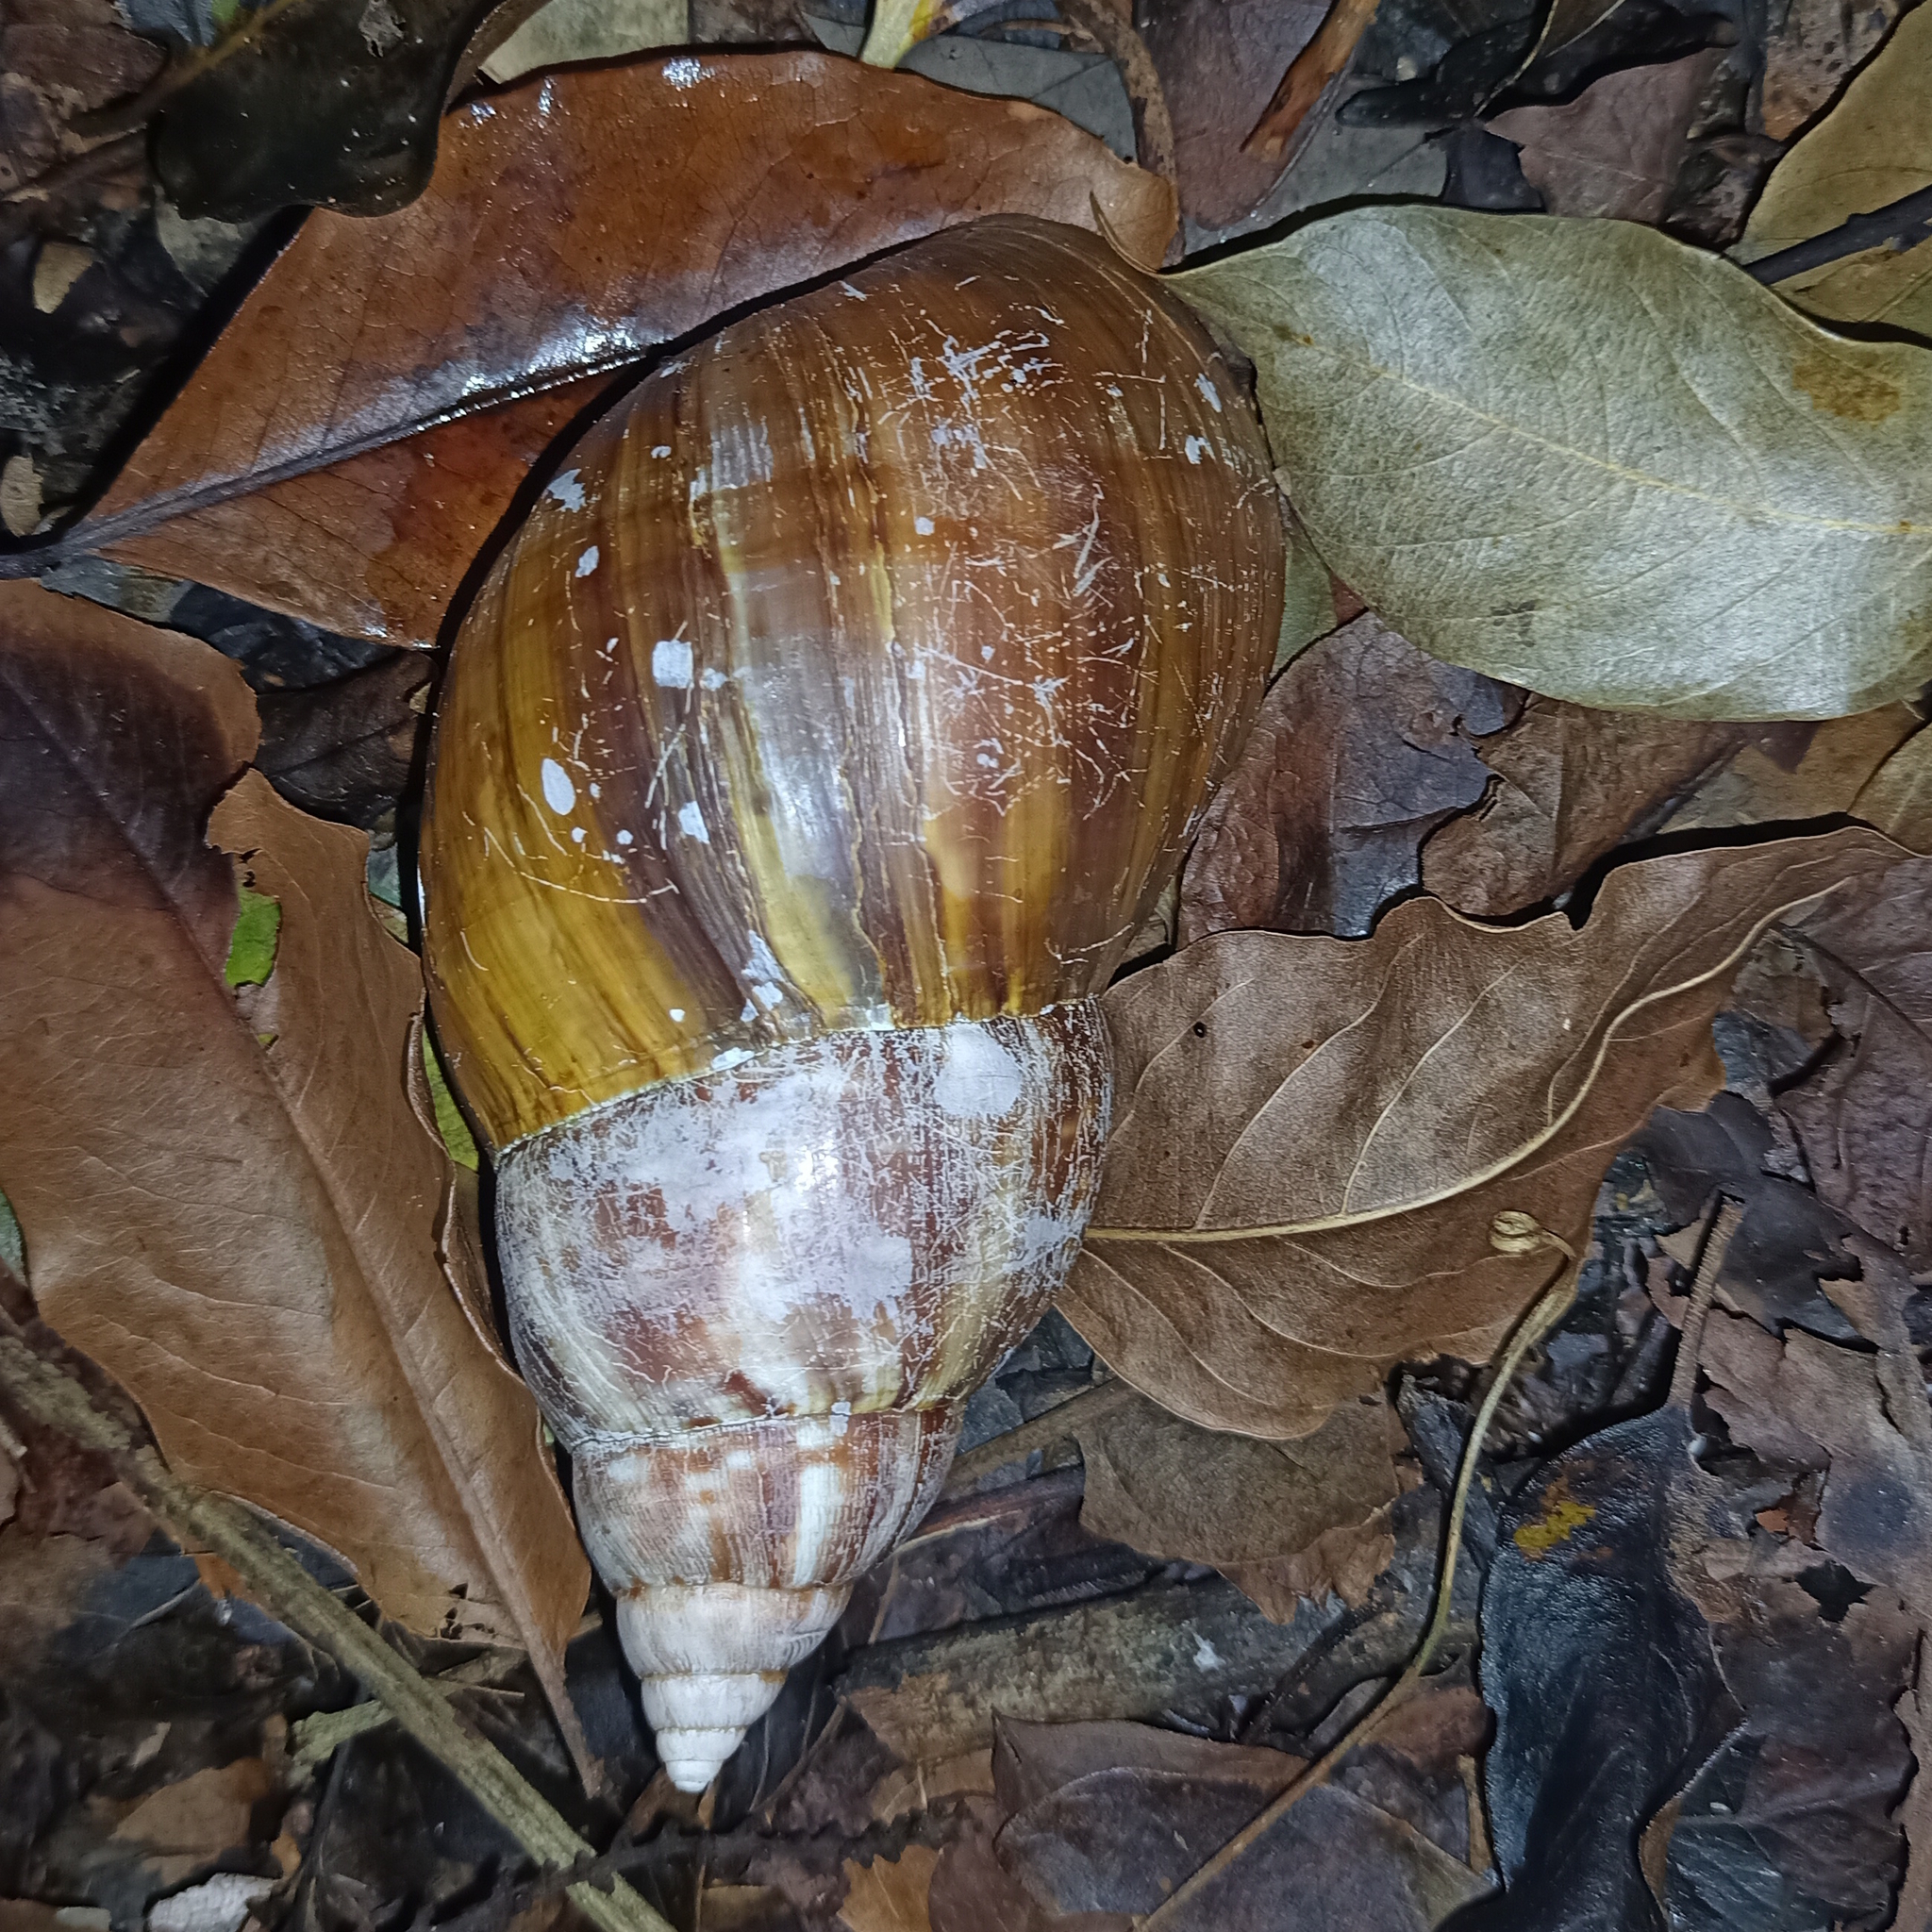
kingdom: Animalia
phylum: Mollusca
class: Gastropoda
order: Stylommatophora
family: Achatinidae
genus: Lissachatina
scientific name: Lissachatina fulica
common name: Giant african snail
